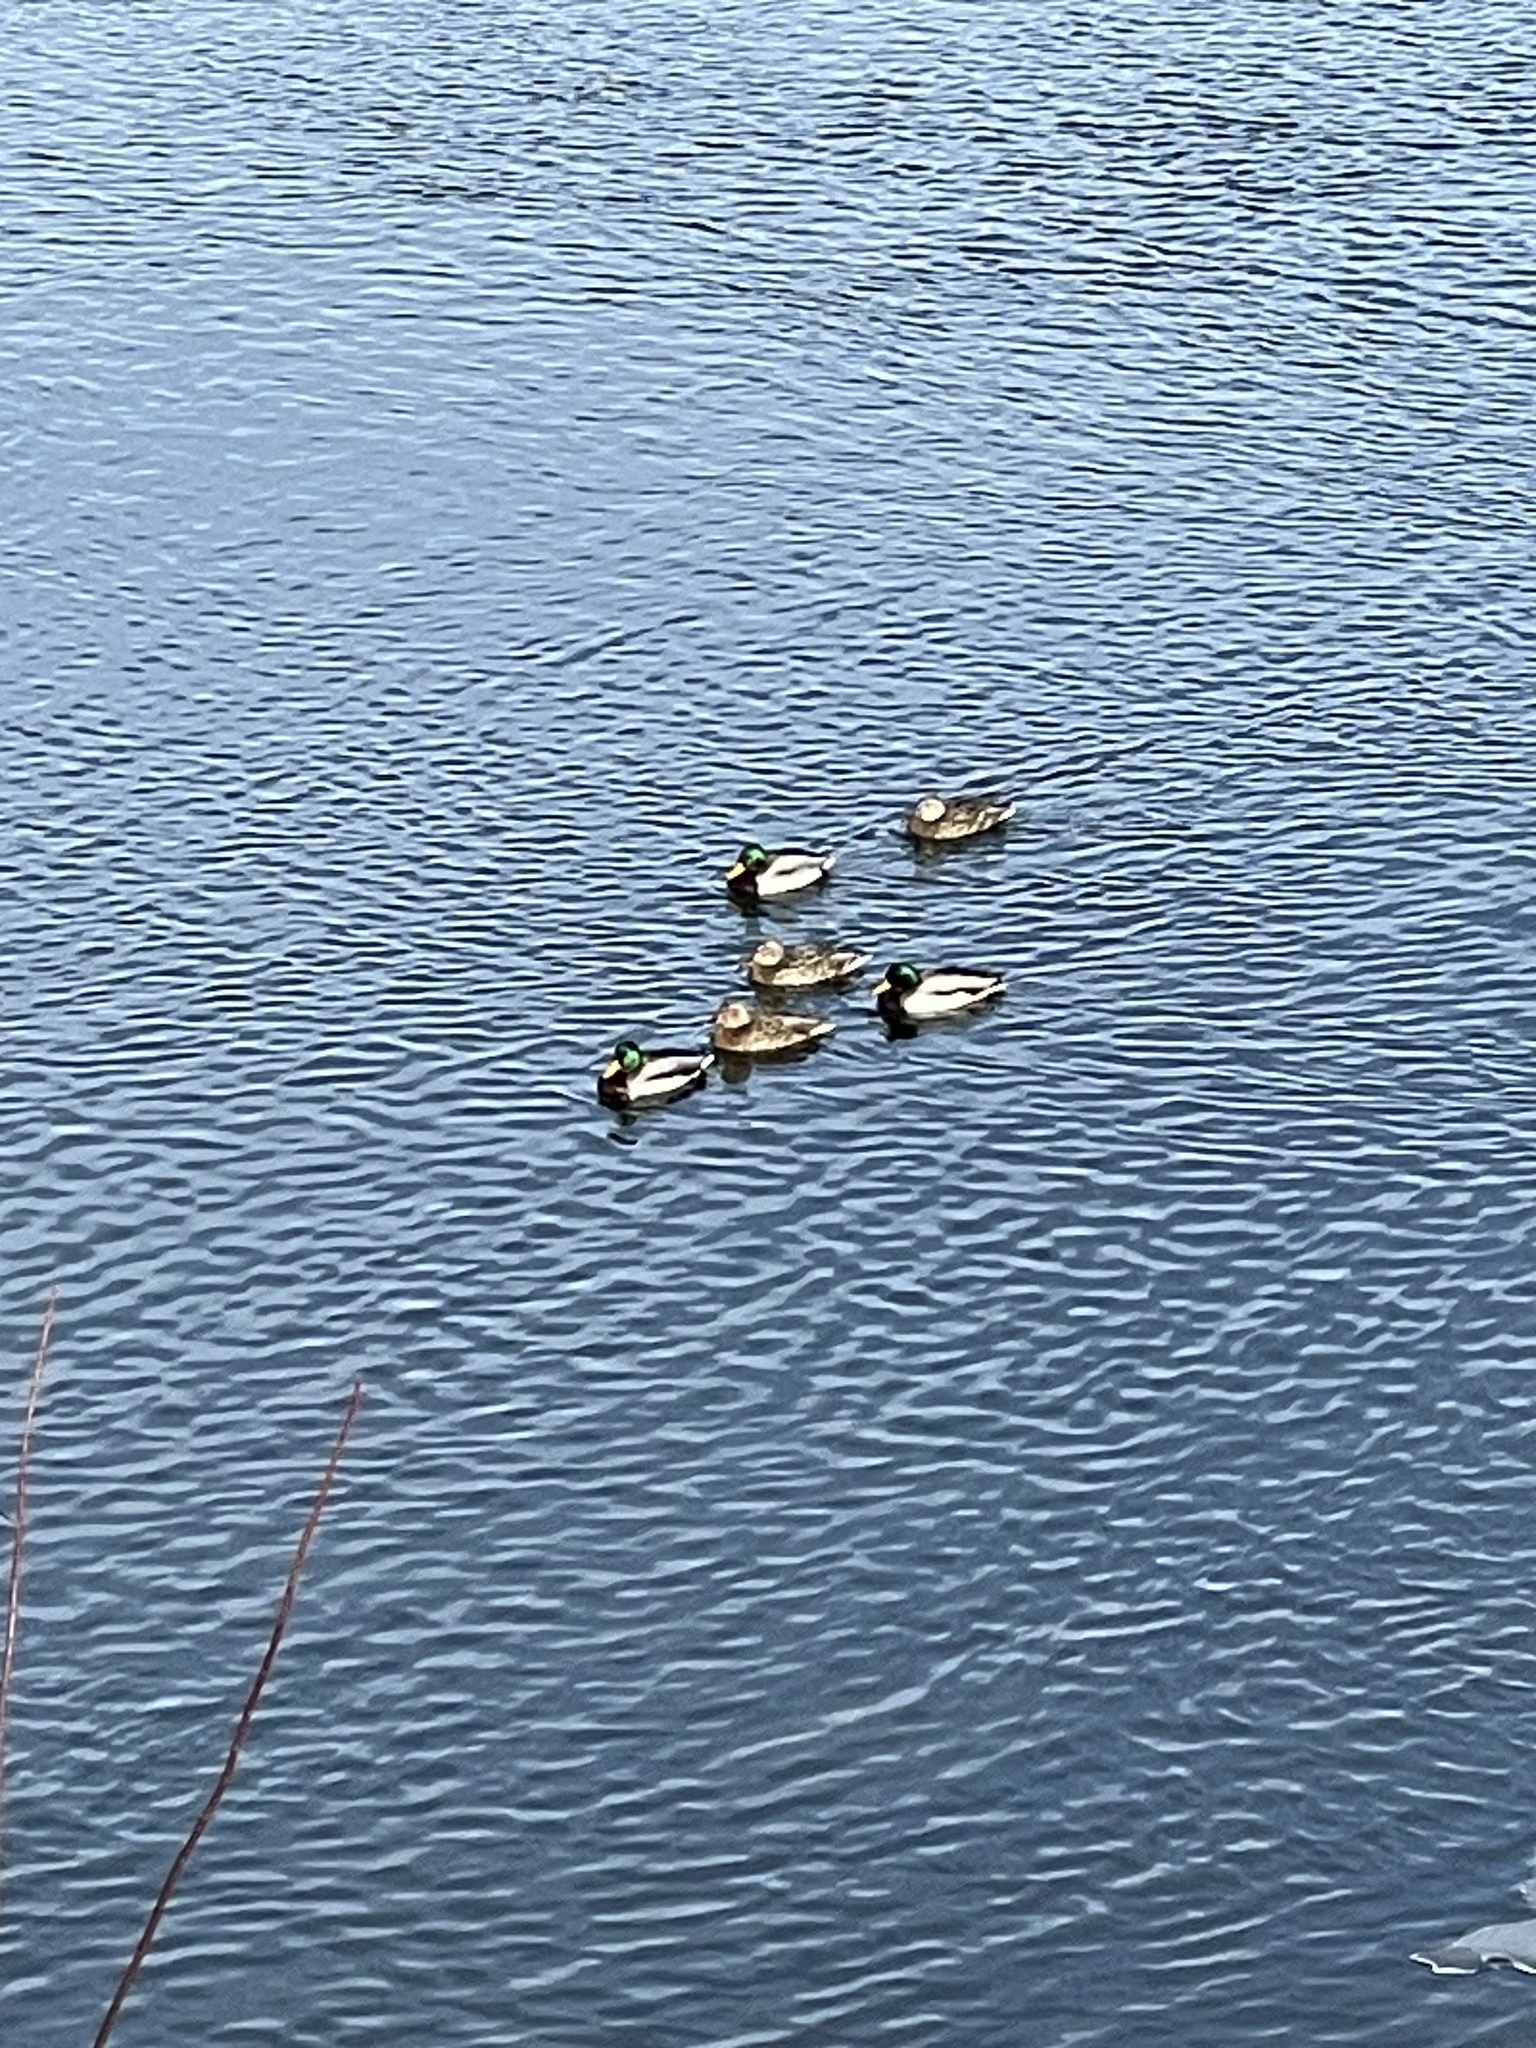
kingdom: Animalia
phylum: Chordata
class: Aves
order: Anseriformes
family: Anatidae
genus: Anas
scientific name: Anas platyrhynchos
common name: Mallard
